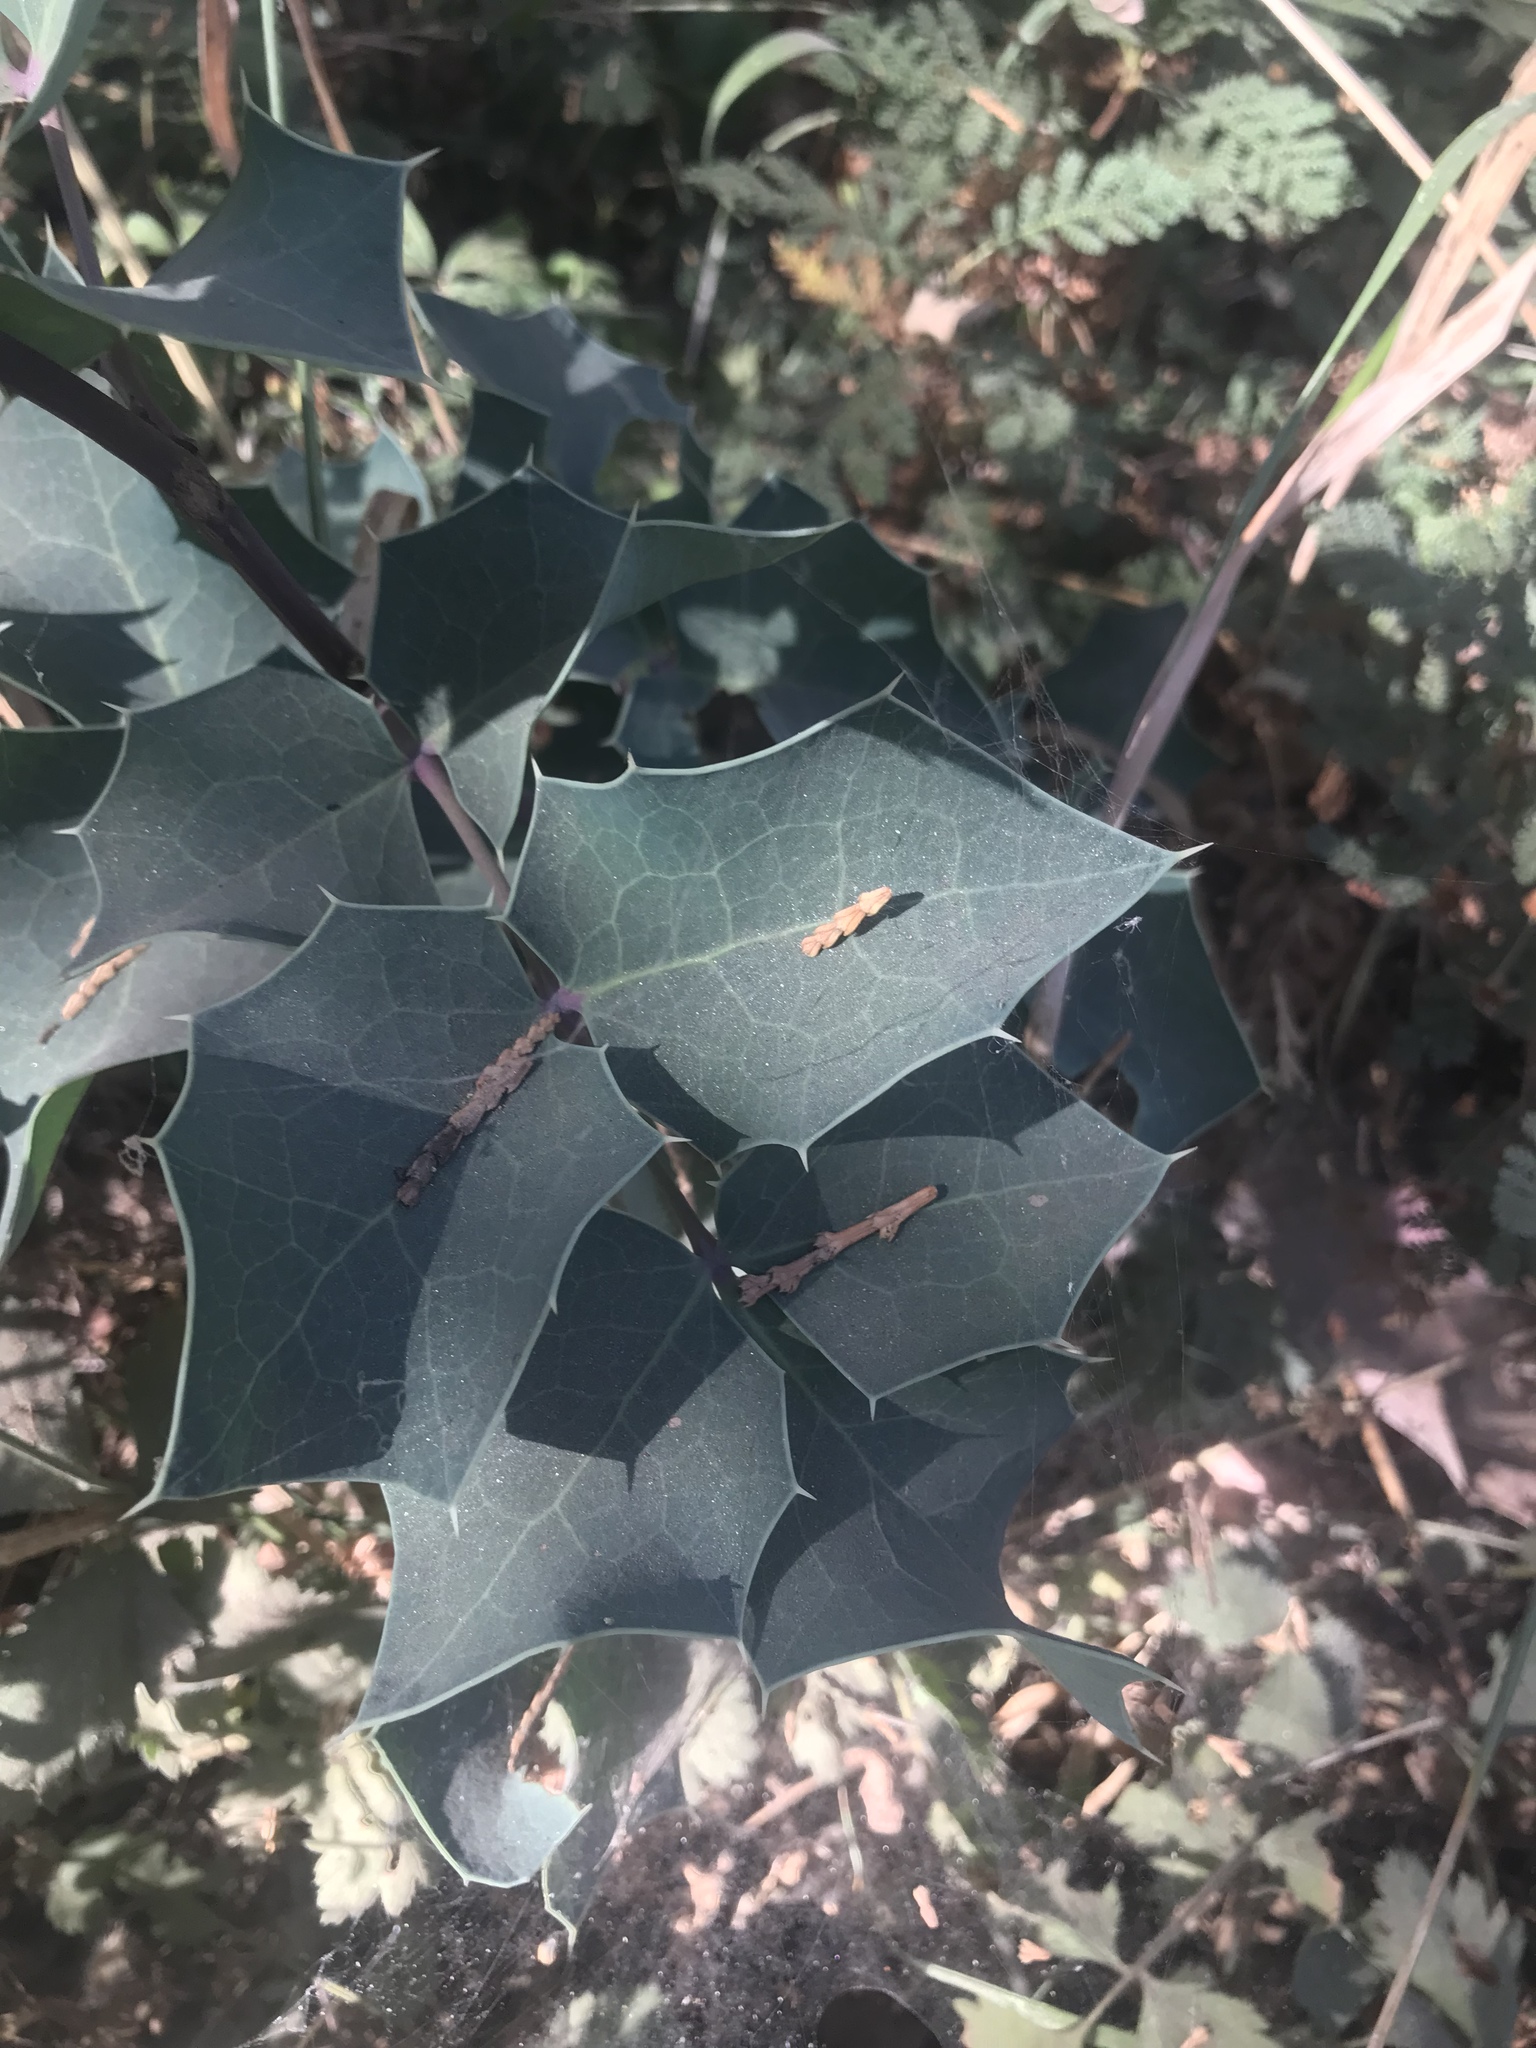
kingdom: Plantae
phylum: Tracheophyta
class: Magnoliopsida
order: Ranunculales
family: Berberidaceae
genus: Mahonia
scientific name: Mahonia dictyota
